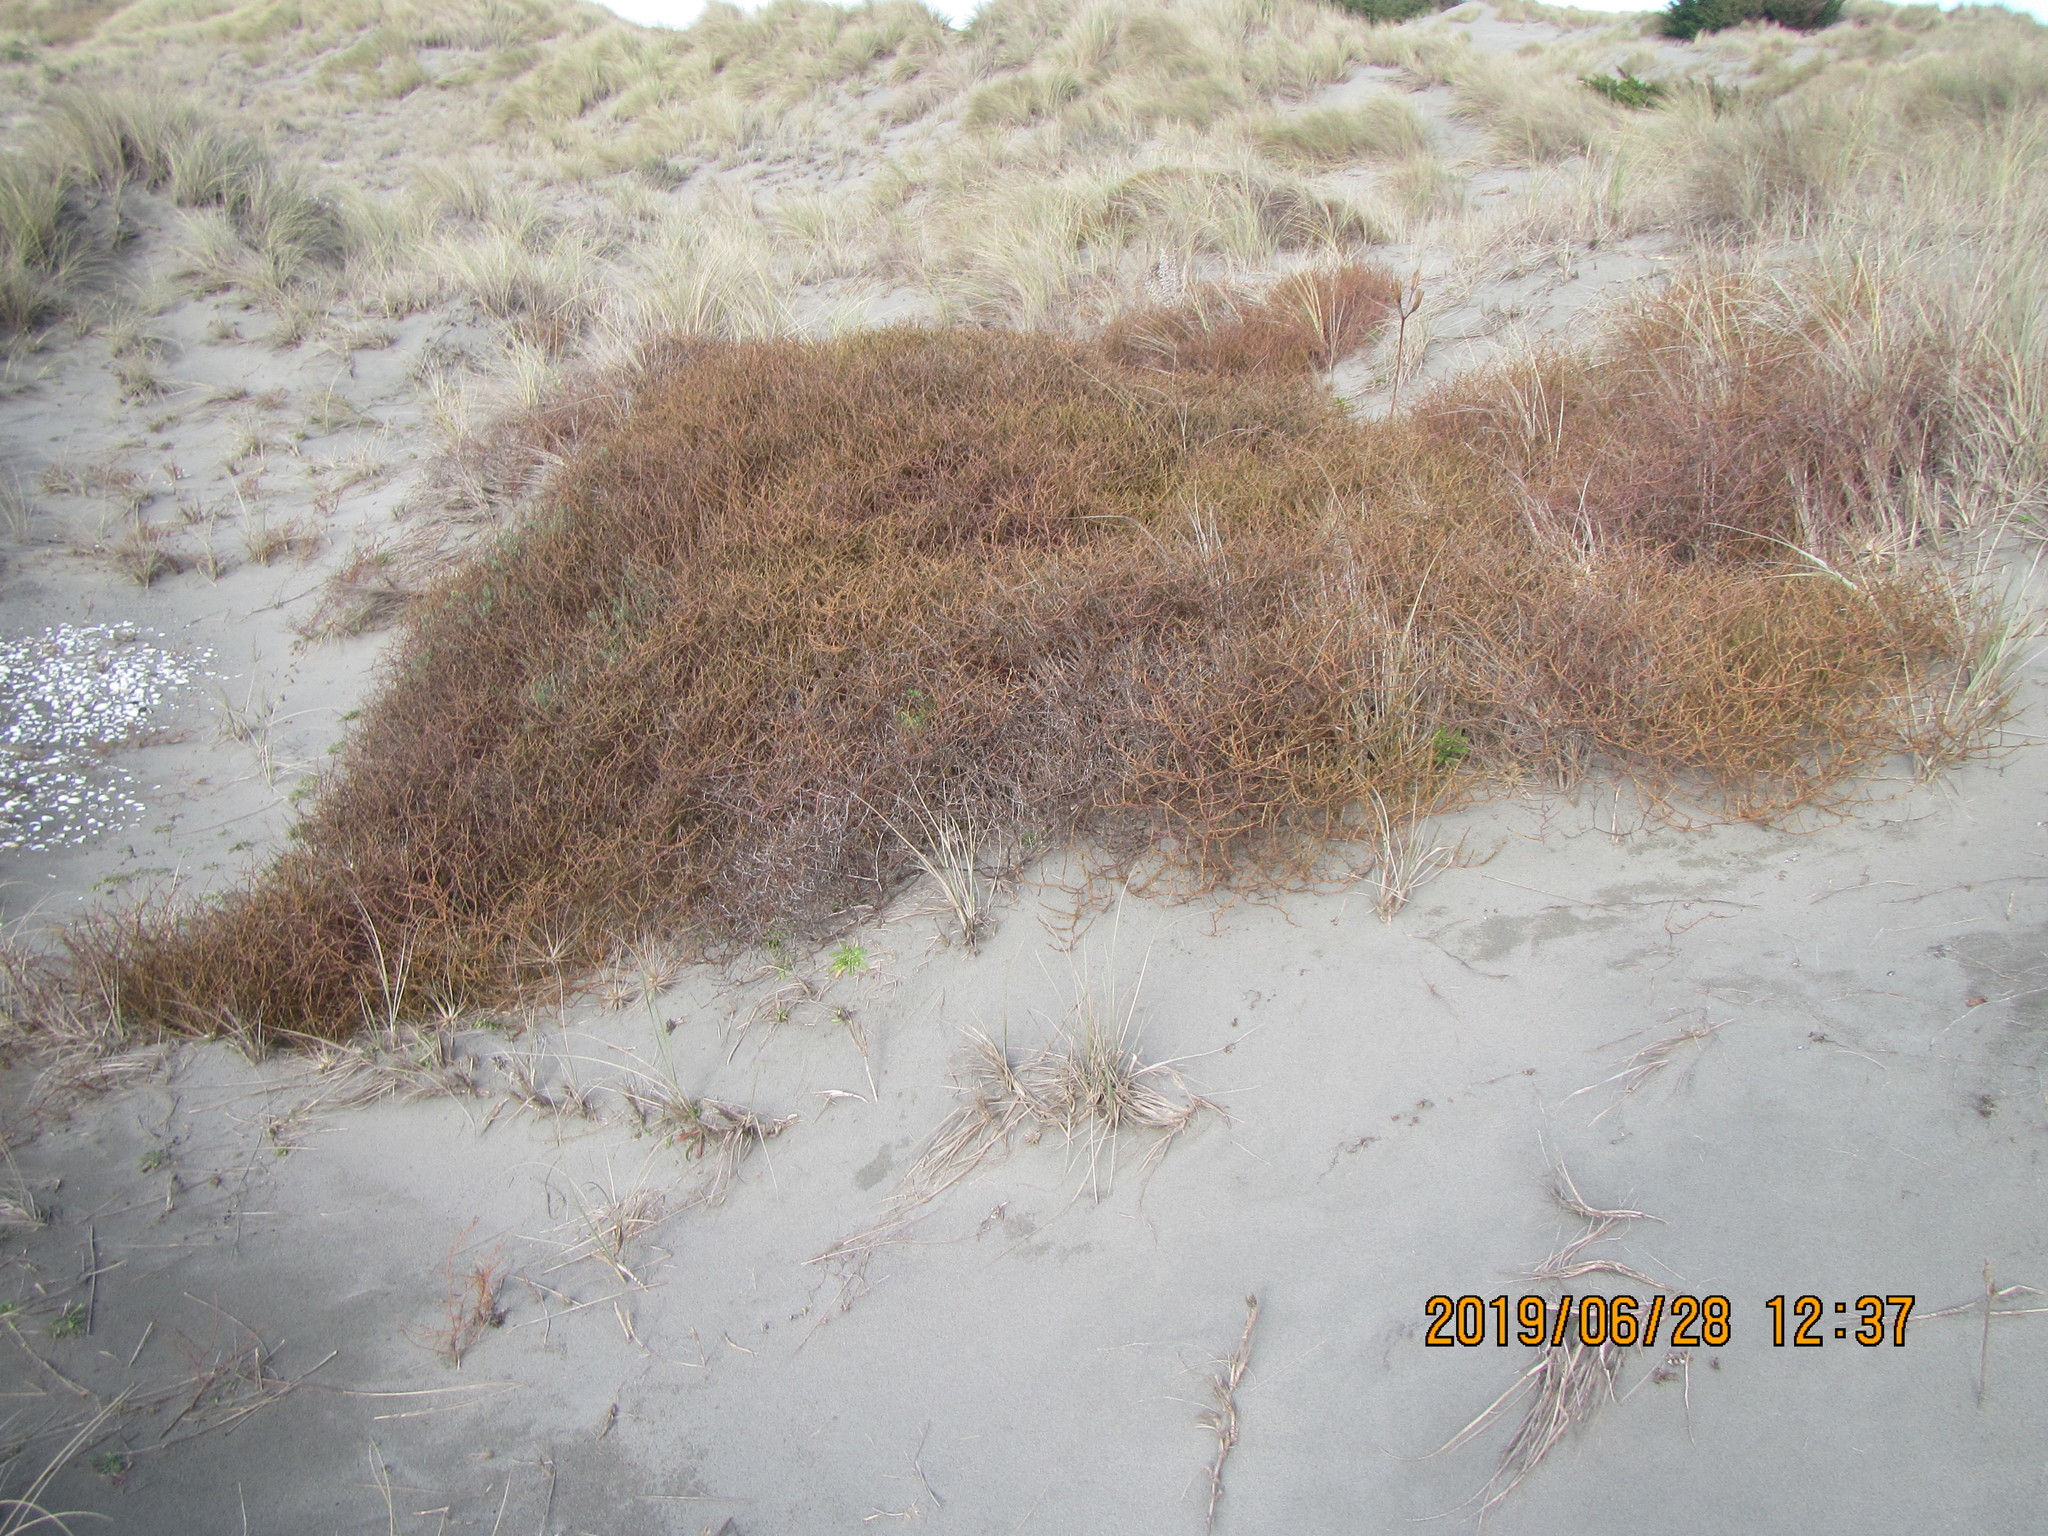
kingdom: Plantae
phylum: Tracheophyta
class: Magnoliopsida
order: Gentianales
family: Rubiaceae
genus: Coprosma
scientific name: Coprosma acerosa
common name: Sand coprosma
